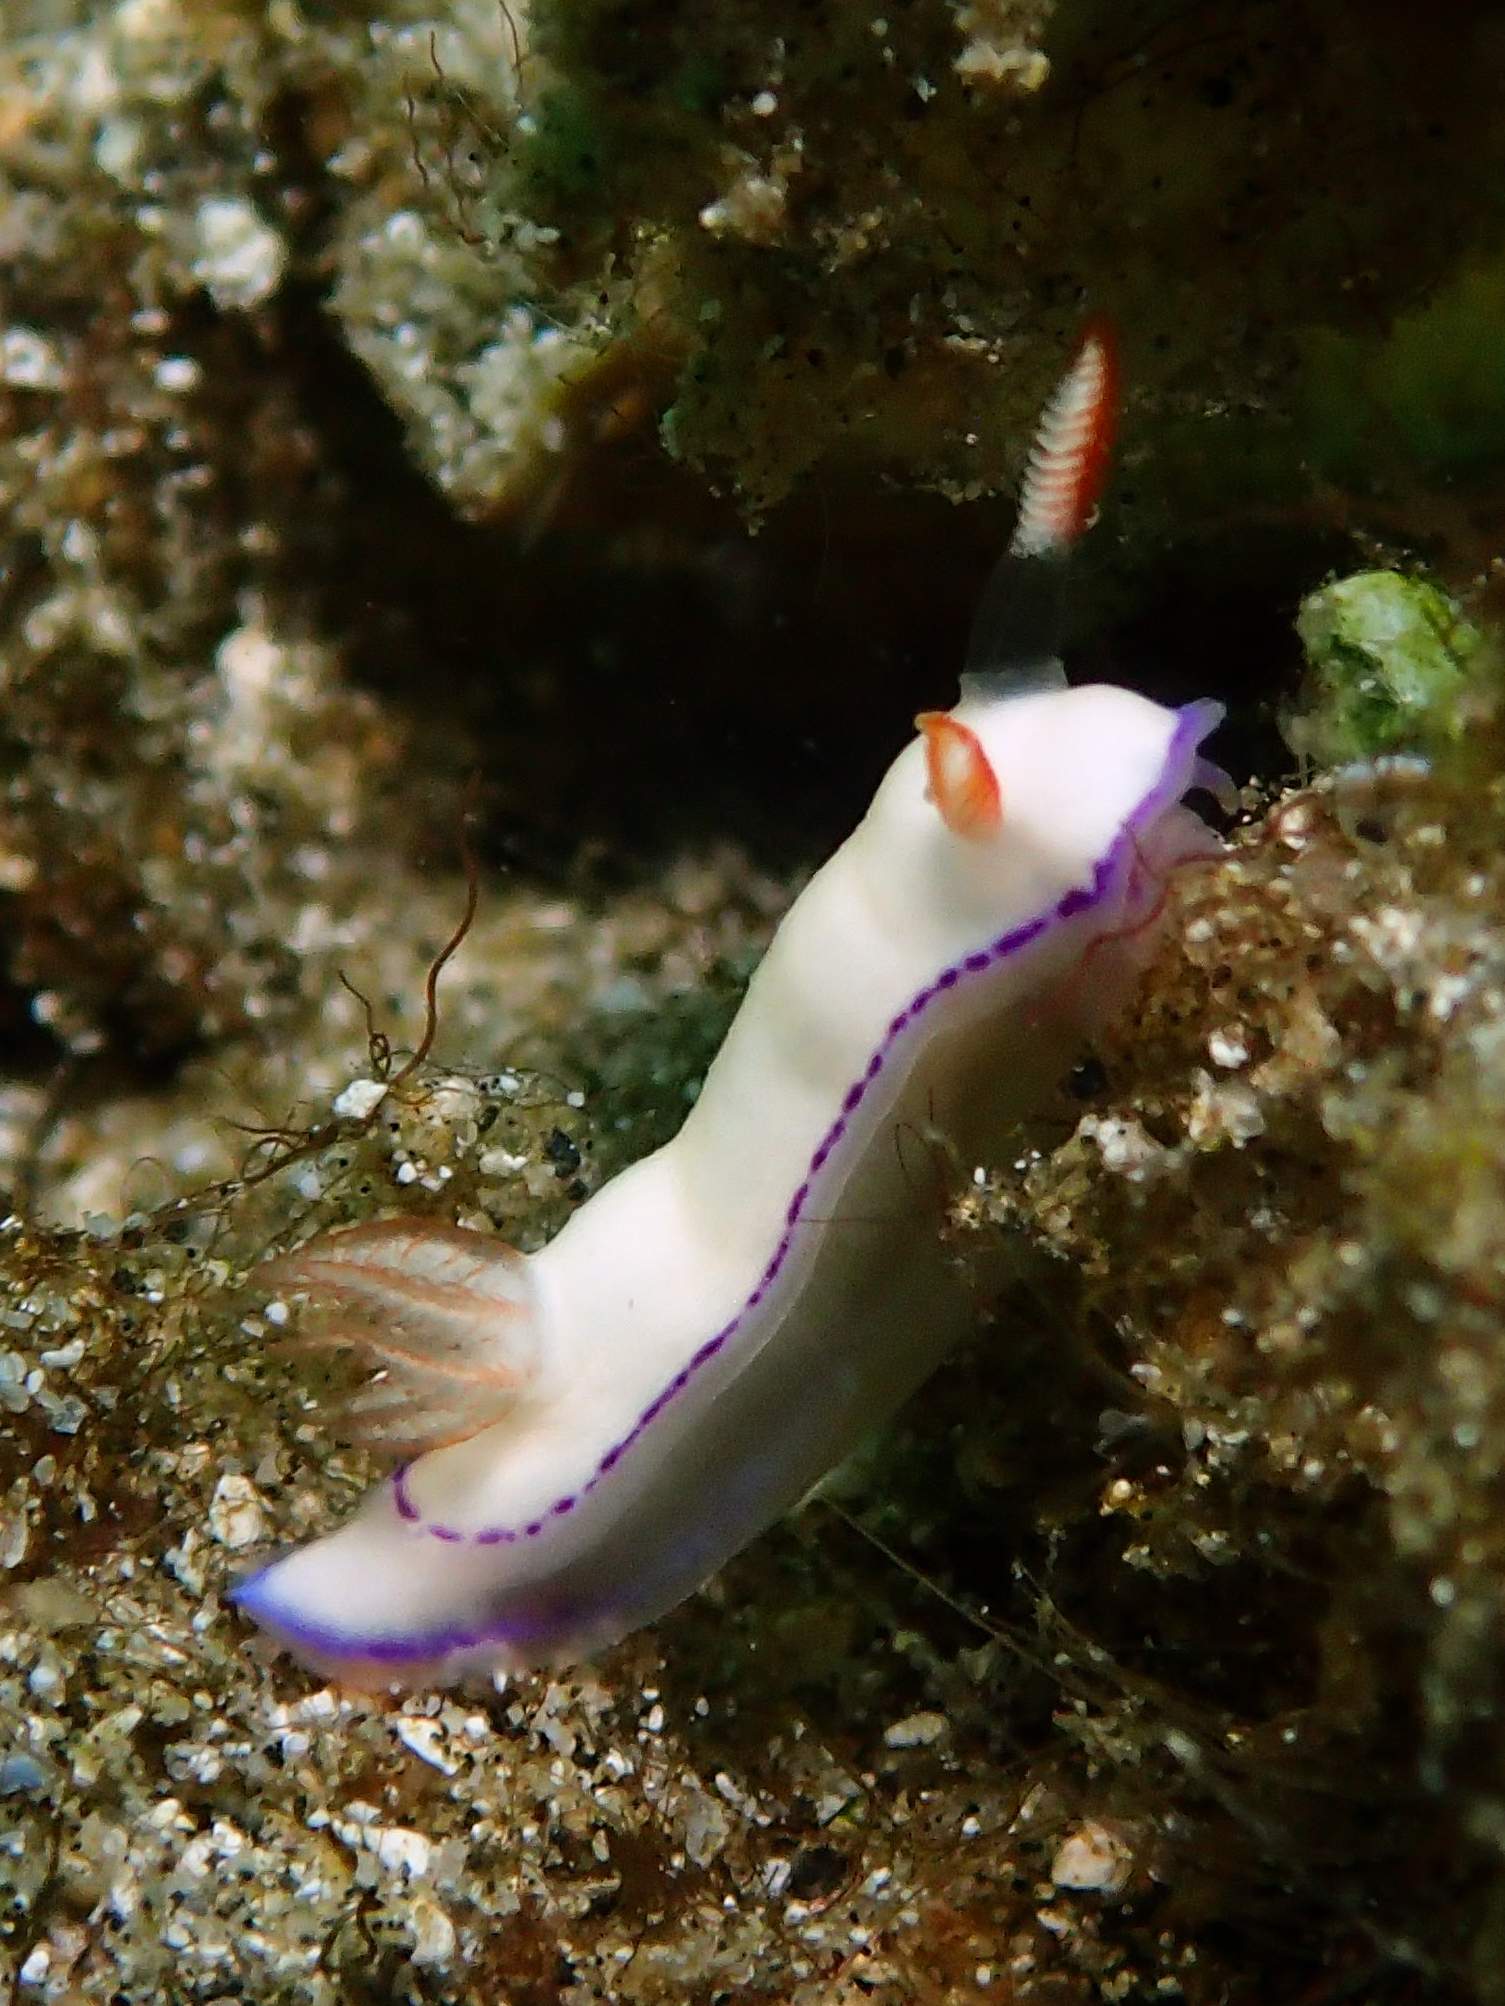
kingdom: Animalia
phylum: Mollusca
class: Gastropoda
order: Nudibranchia
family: Chromodorididae
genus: Thorunna
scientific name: Thorunna daniellae
